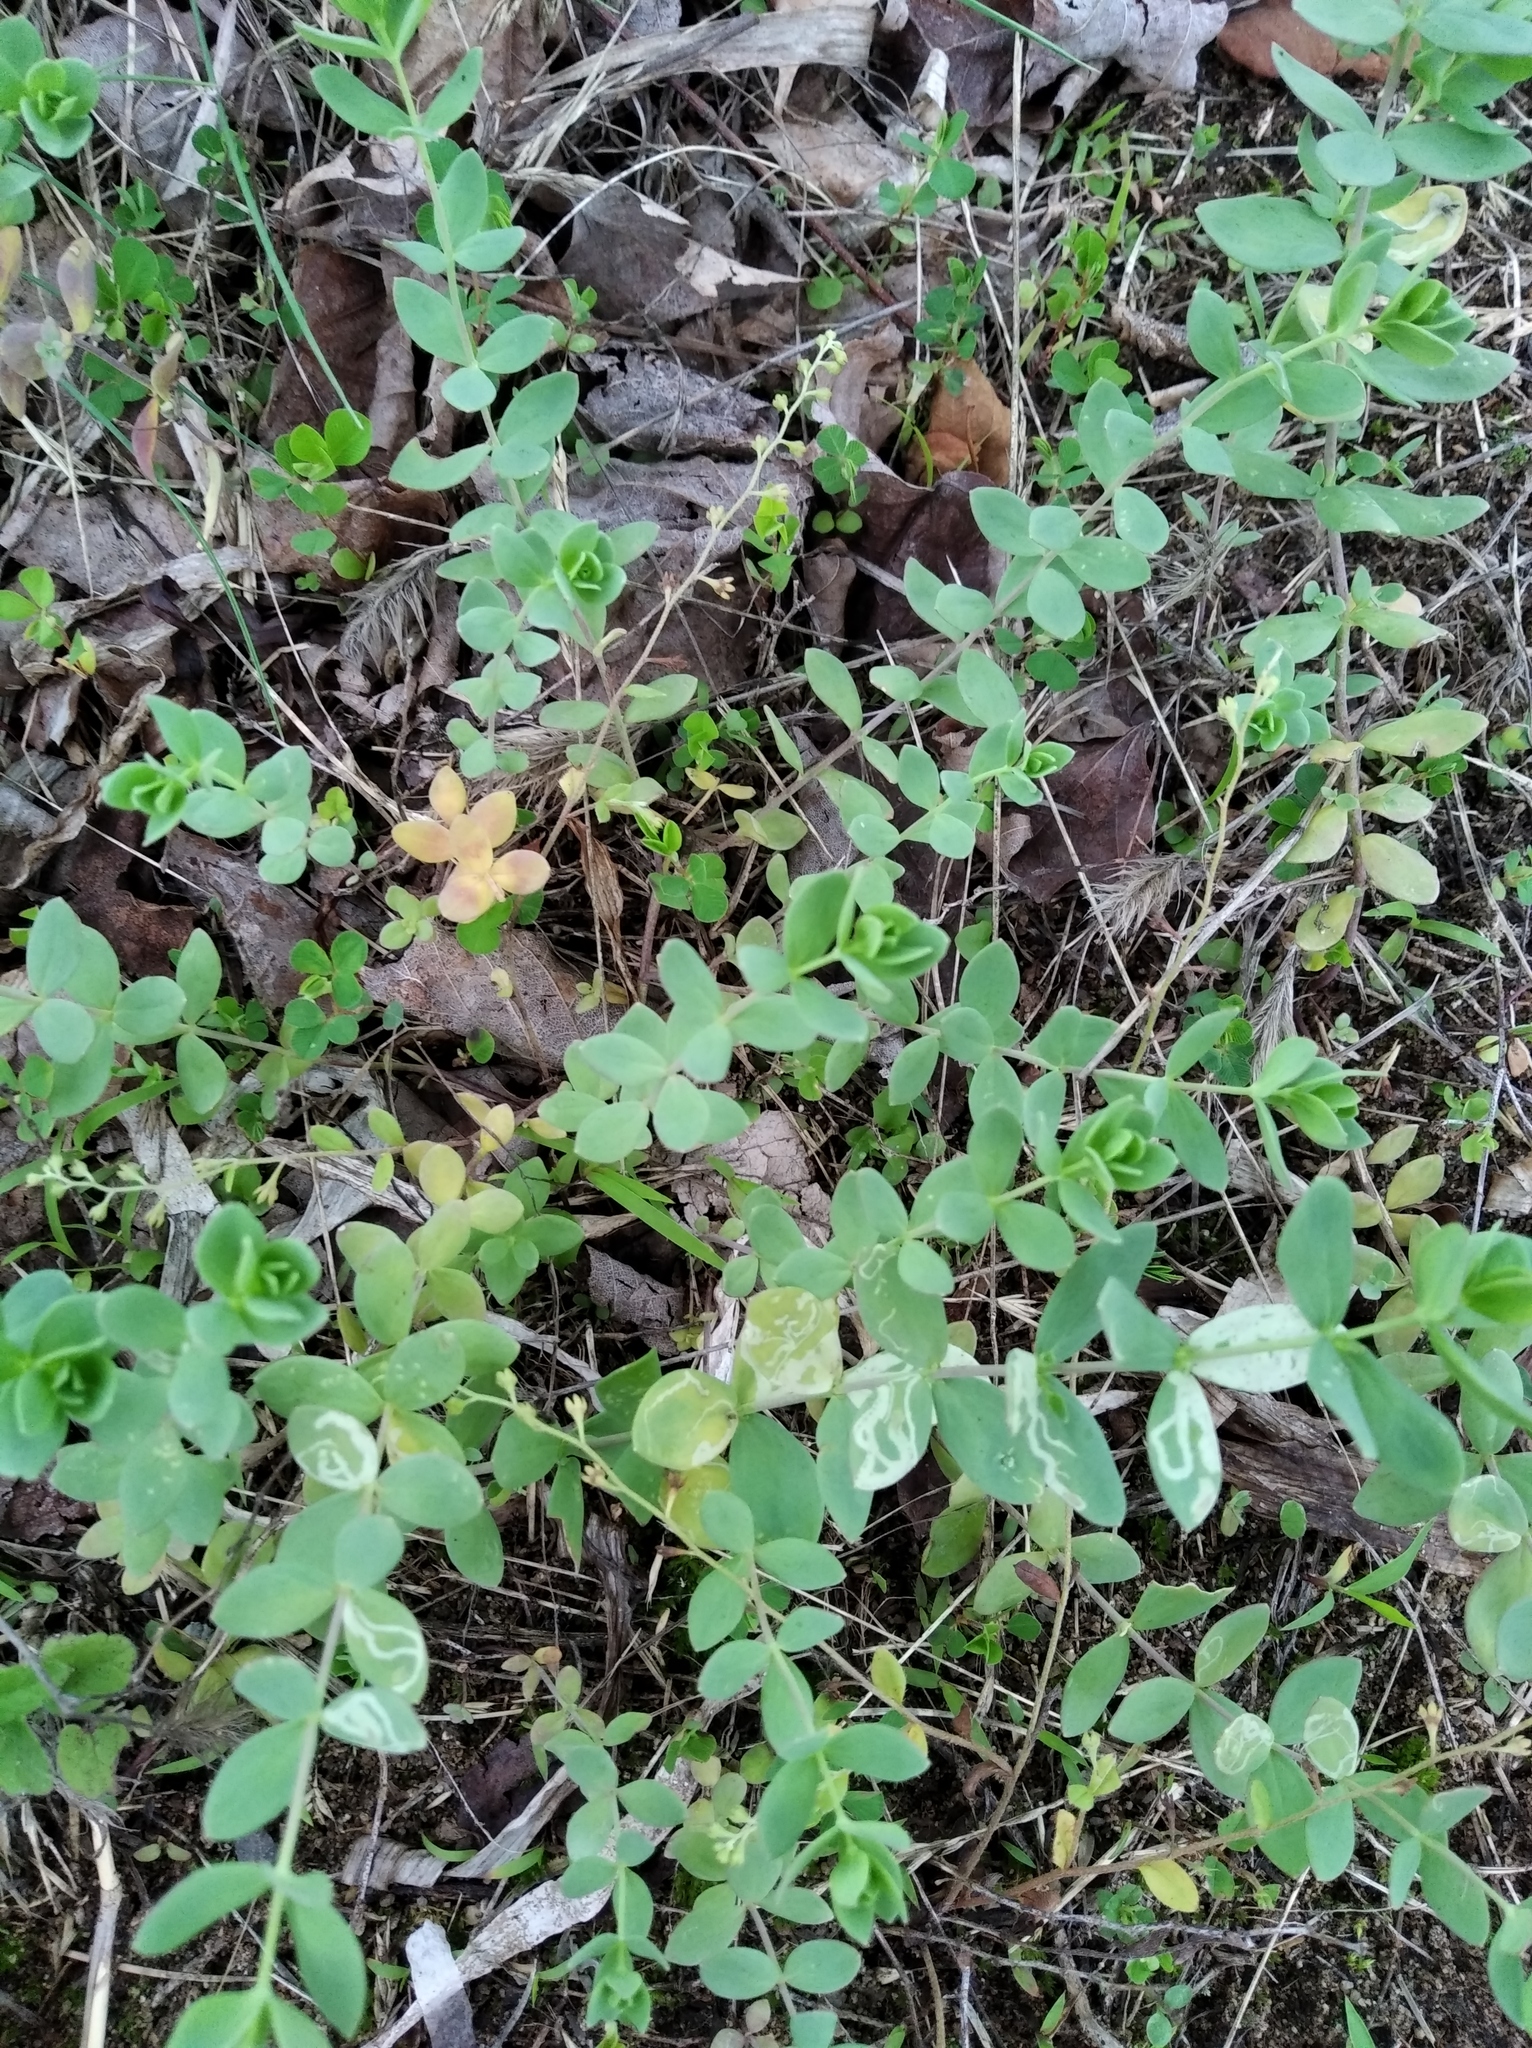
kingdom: Plantae
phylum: Tracheophyta
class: Magnoliopsida
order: Lamiales
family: Plantaginaceae
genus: Linaria
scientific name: Linaria japonica
